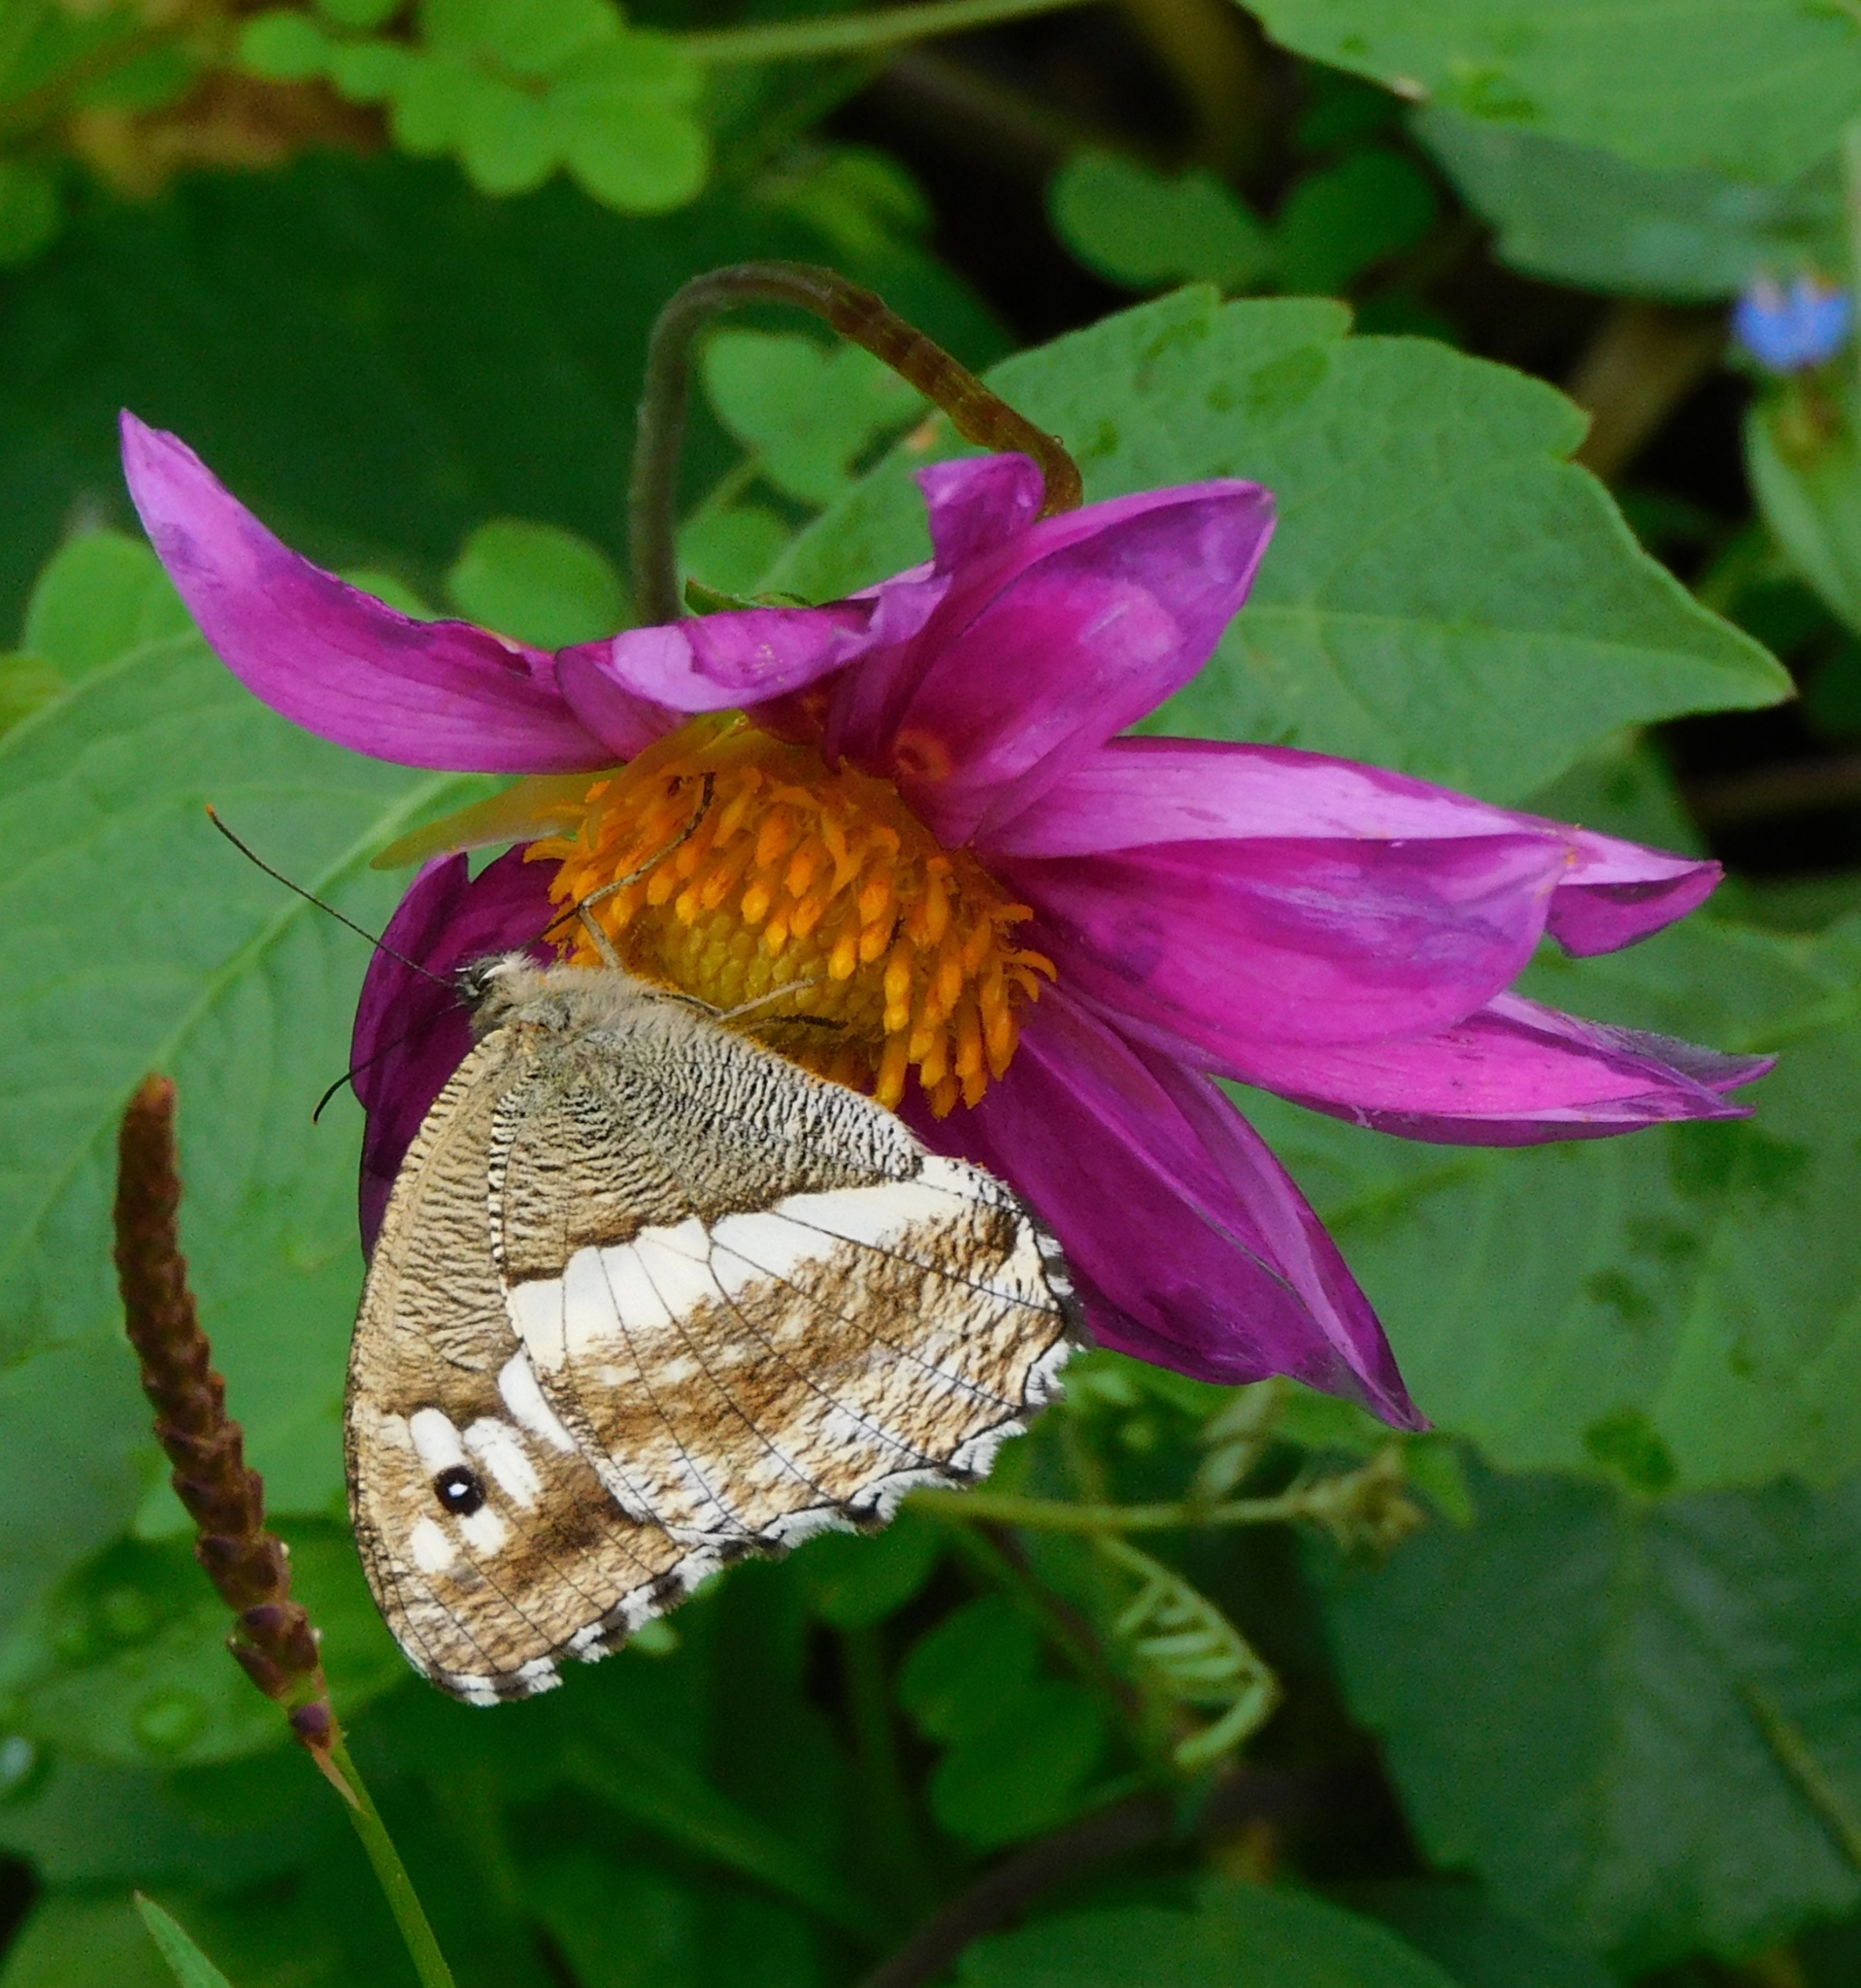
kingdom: Animalia
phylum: Arthropoda
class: Insecta
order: Lepidoptera
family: Nymphalidae
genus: Satyrus
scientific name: Satyrus
